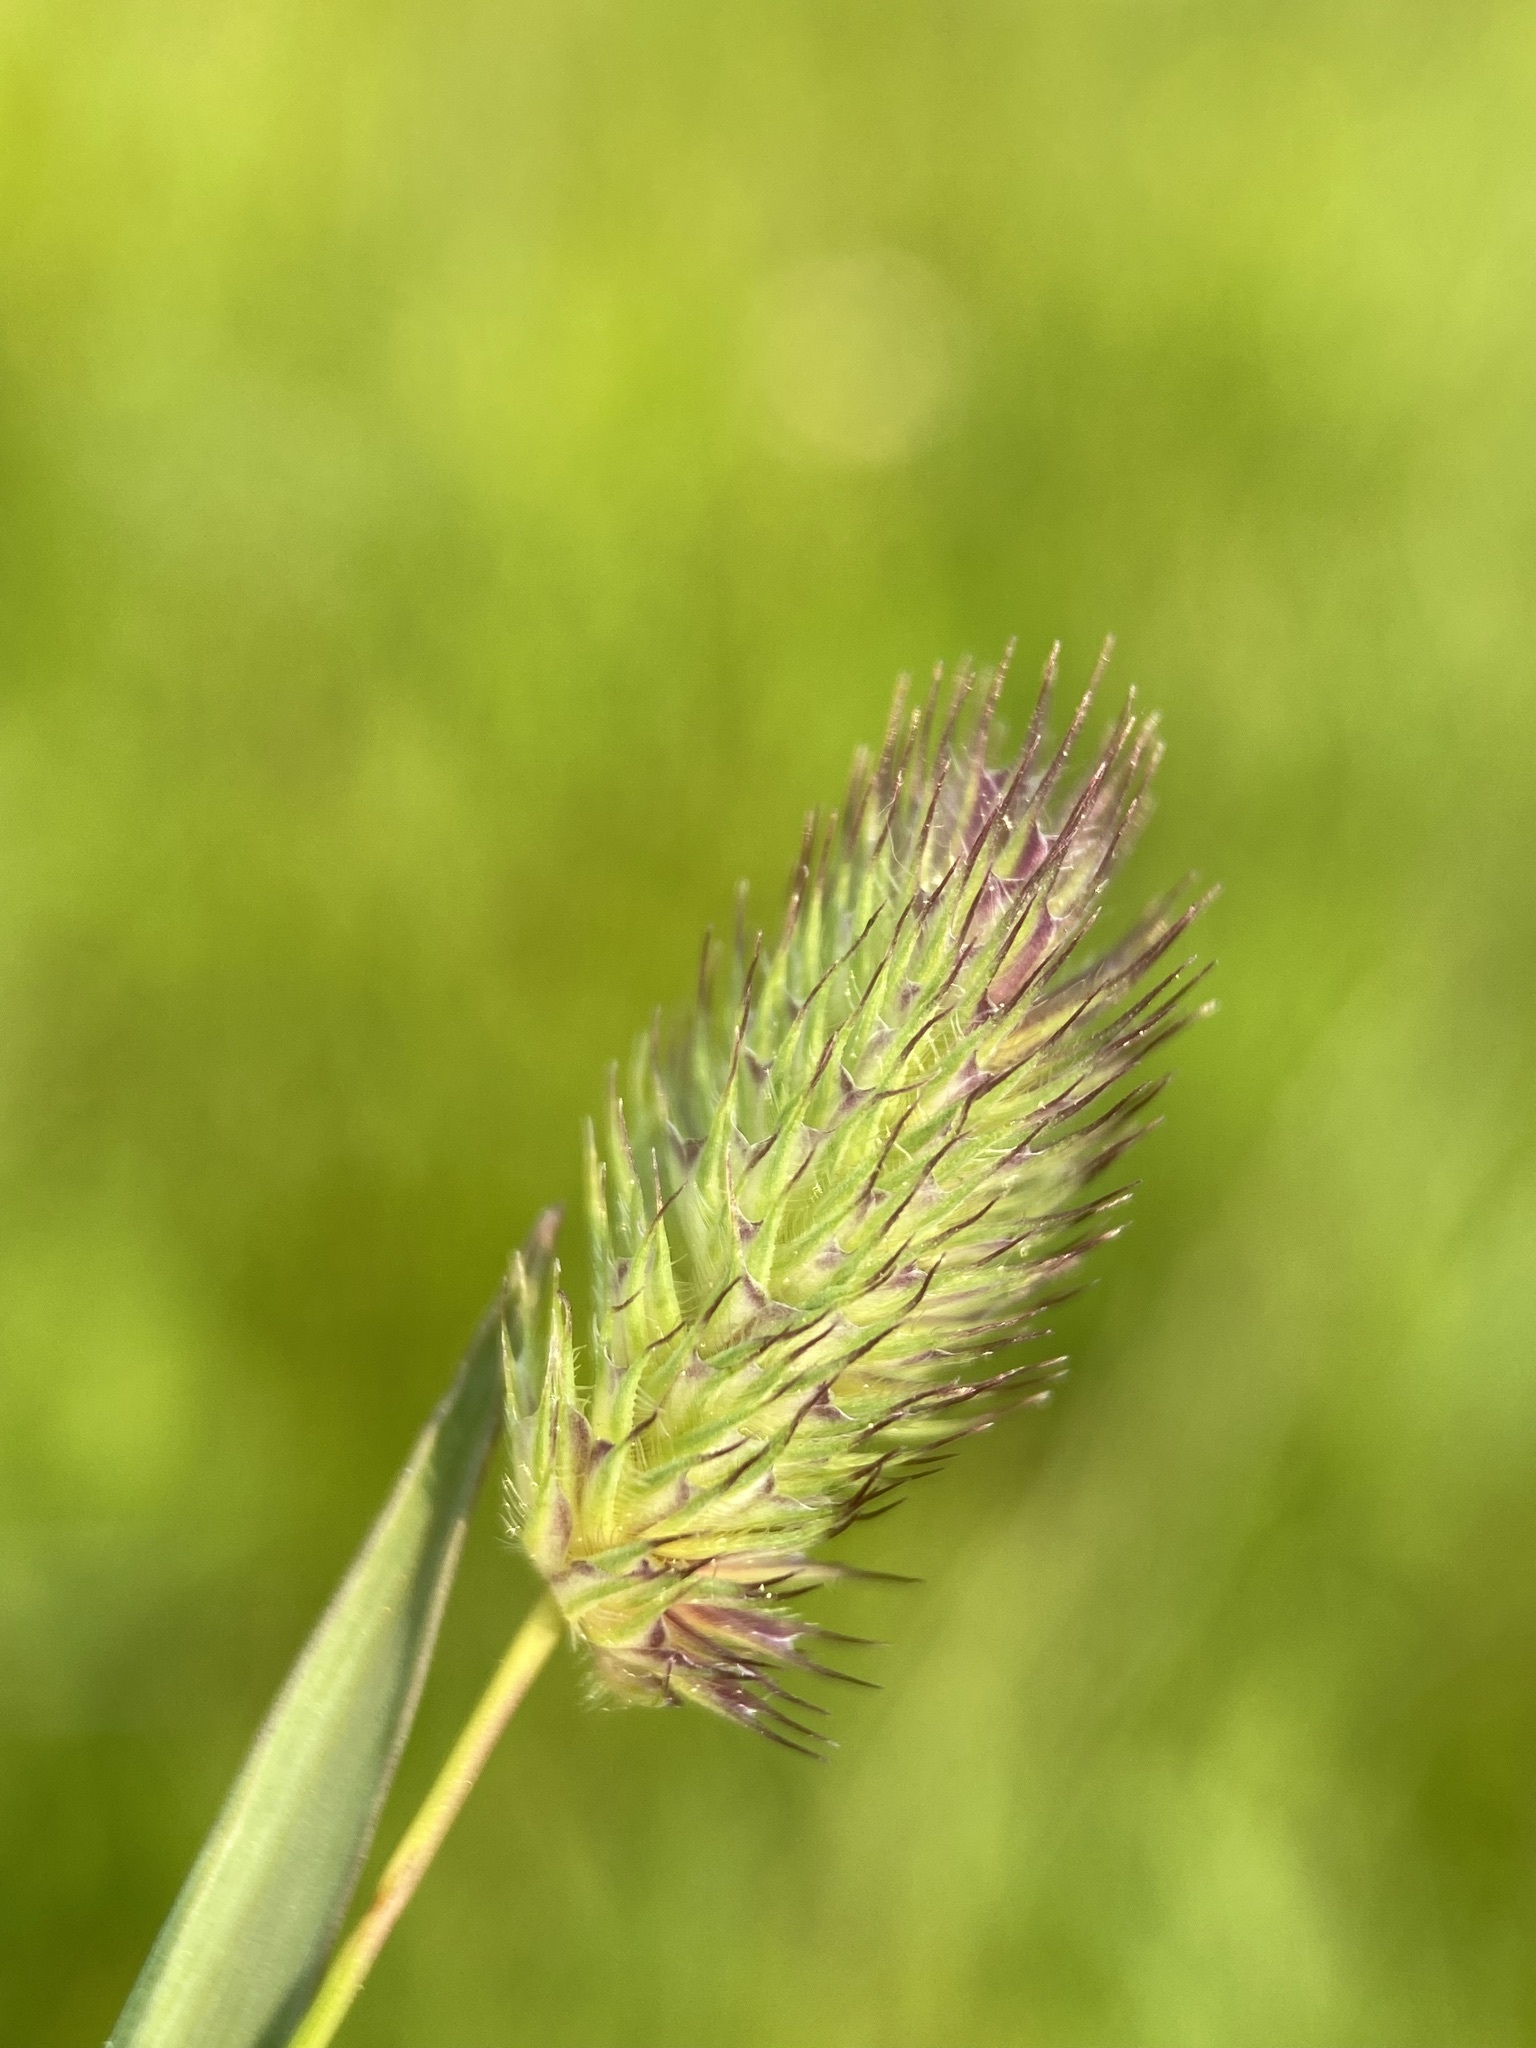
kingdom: Plantae
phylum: Tracheophyta
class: Liliopsida
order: Poales
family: Poaceae
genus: Phleum
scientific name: Phleum alpinum
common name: Alpine cat's-tail
